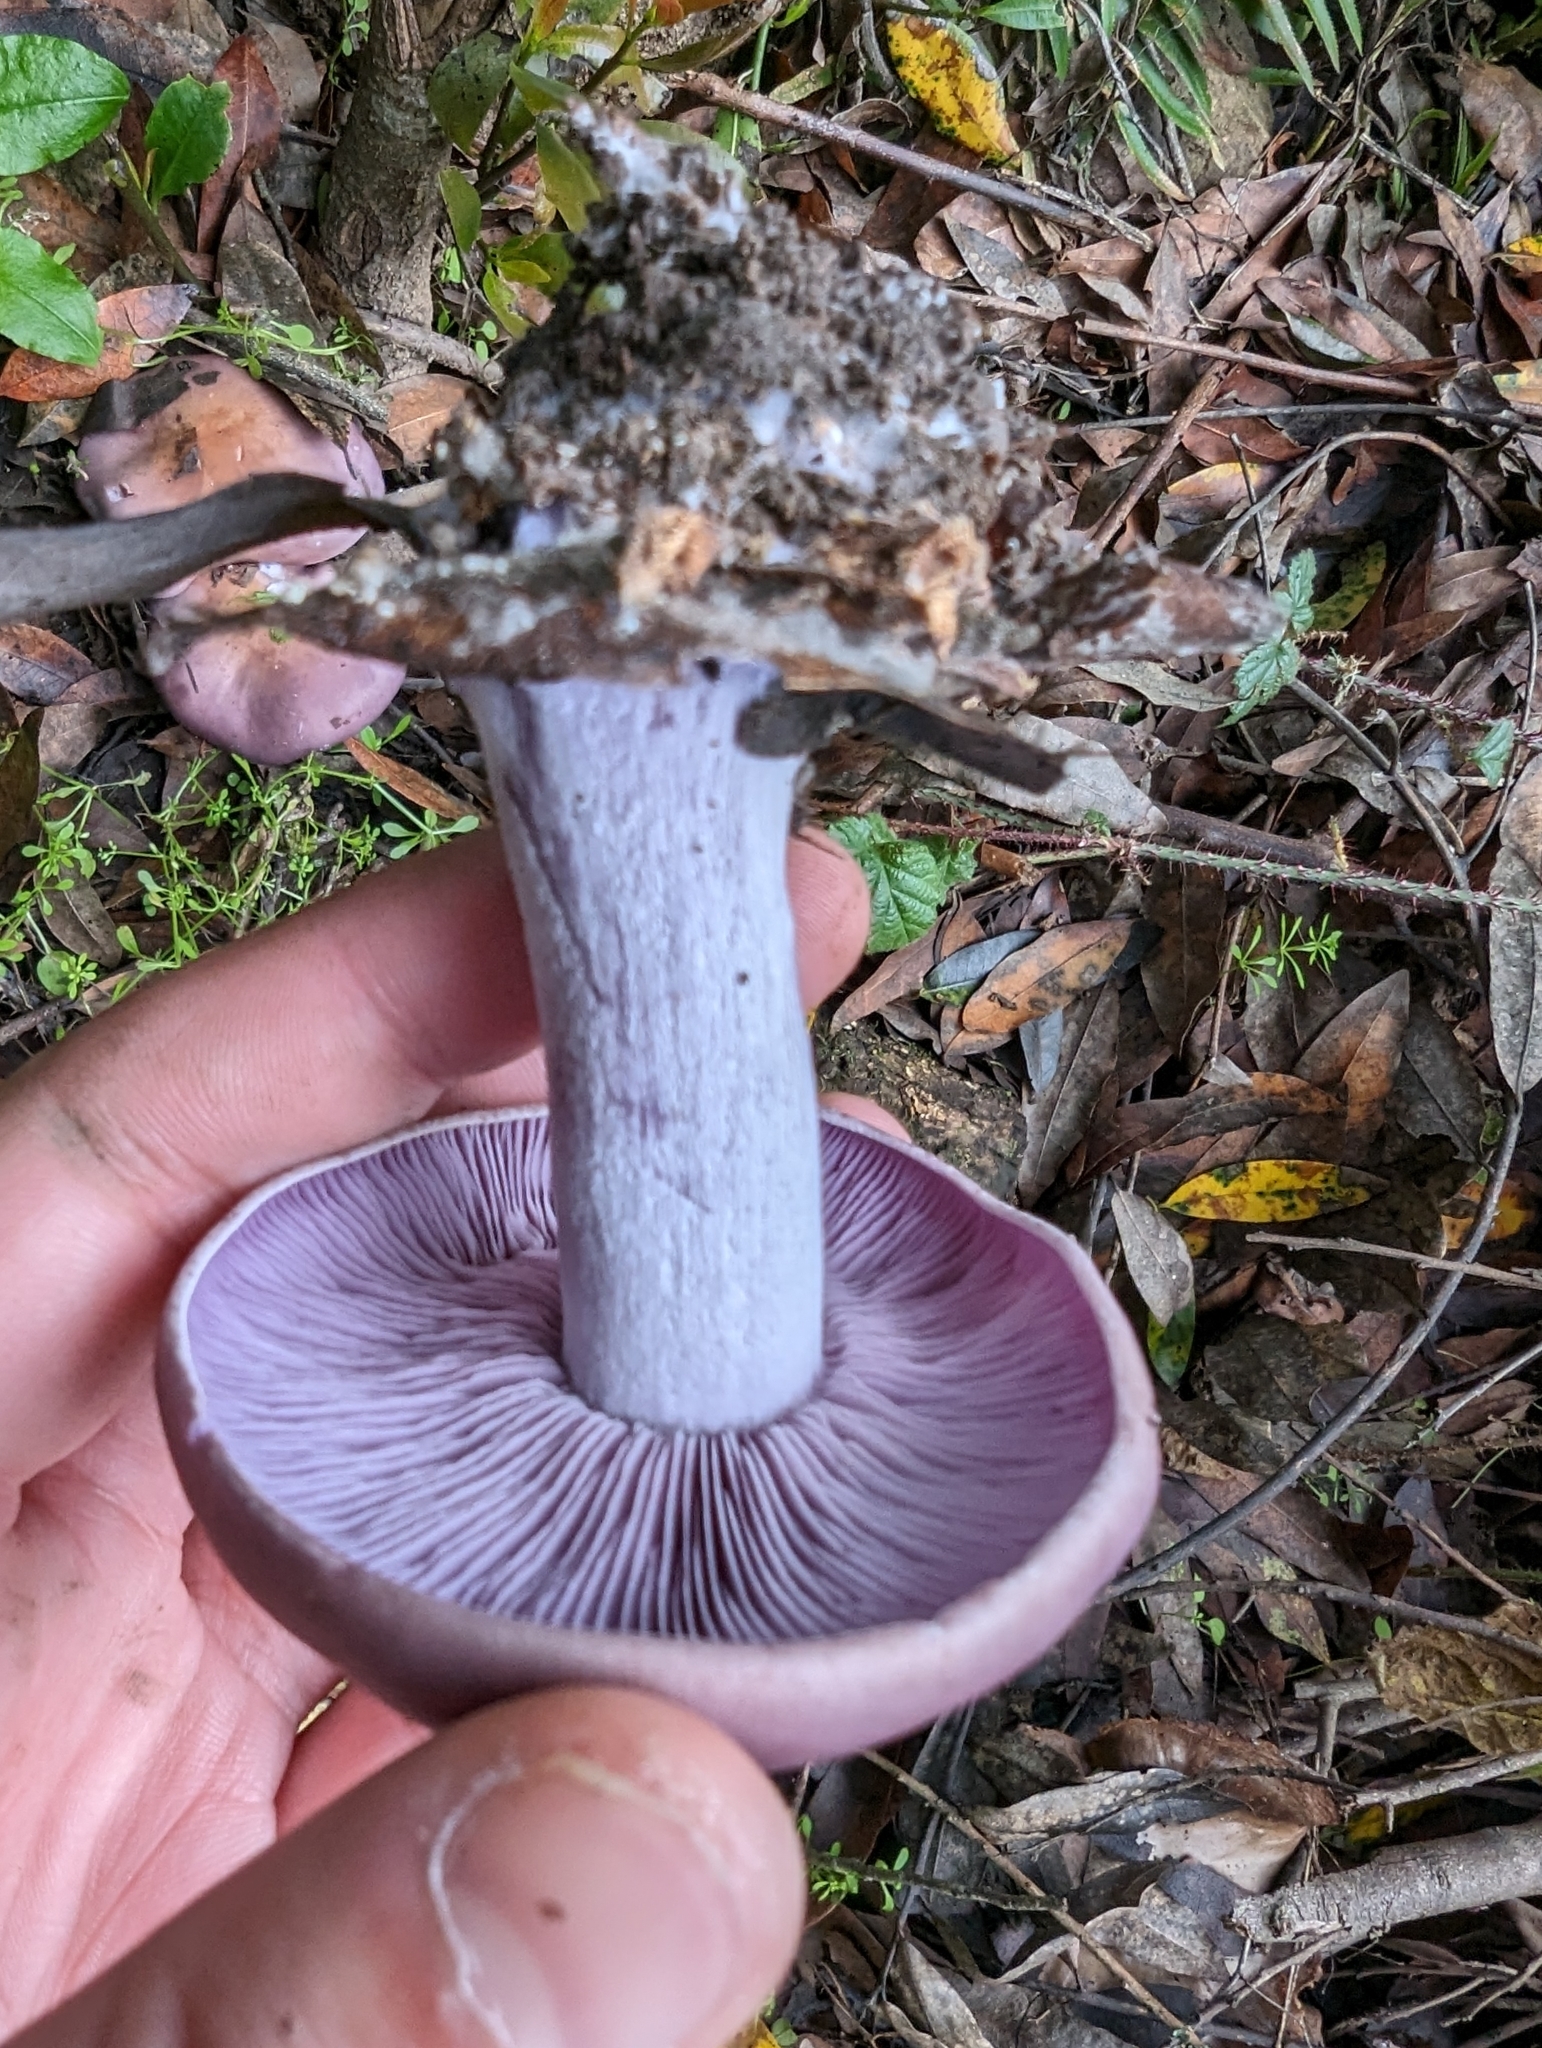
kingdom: Fungi
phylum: Basidiomycota
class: Agaricomycetes
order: Agaricales
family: Tricholomataceae
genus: Collybia
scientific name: Collybia
